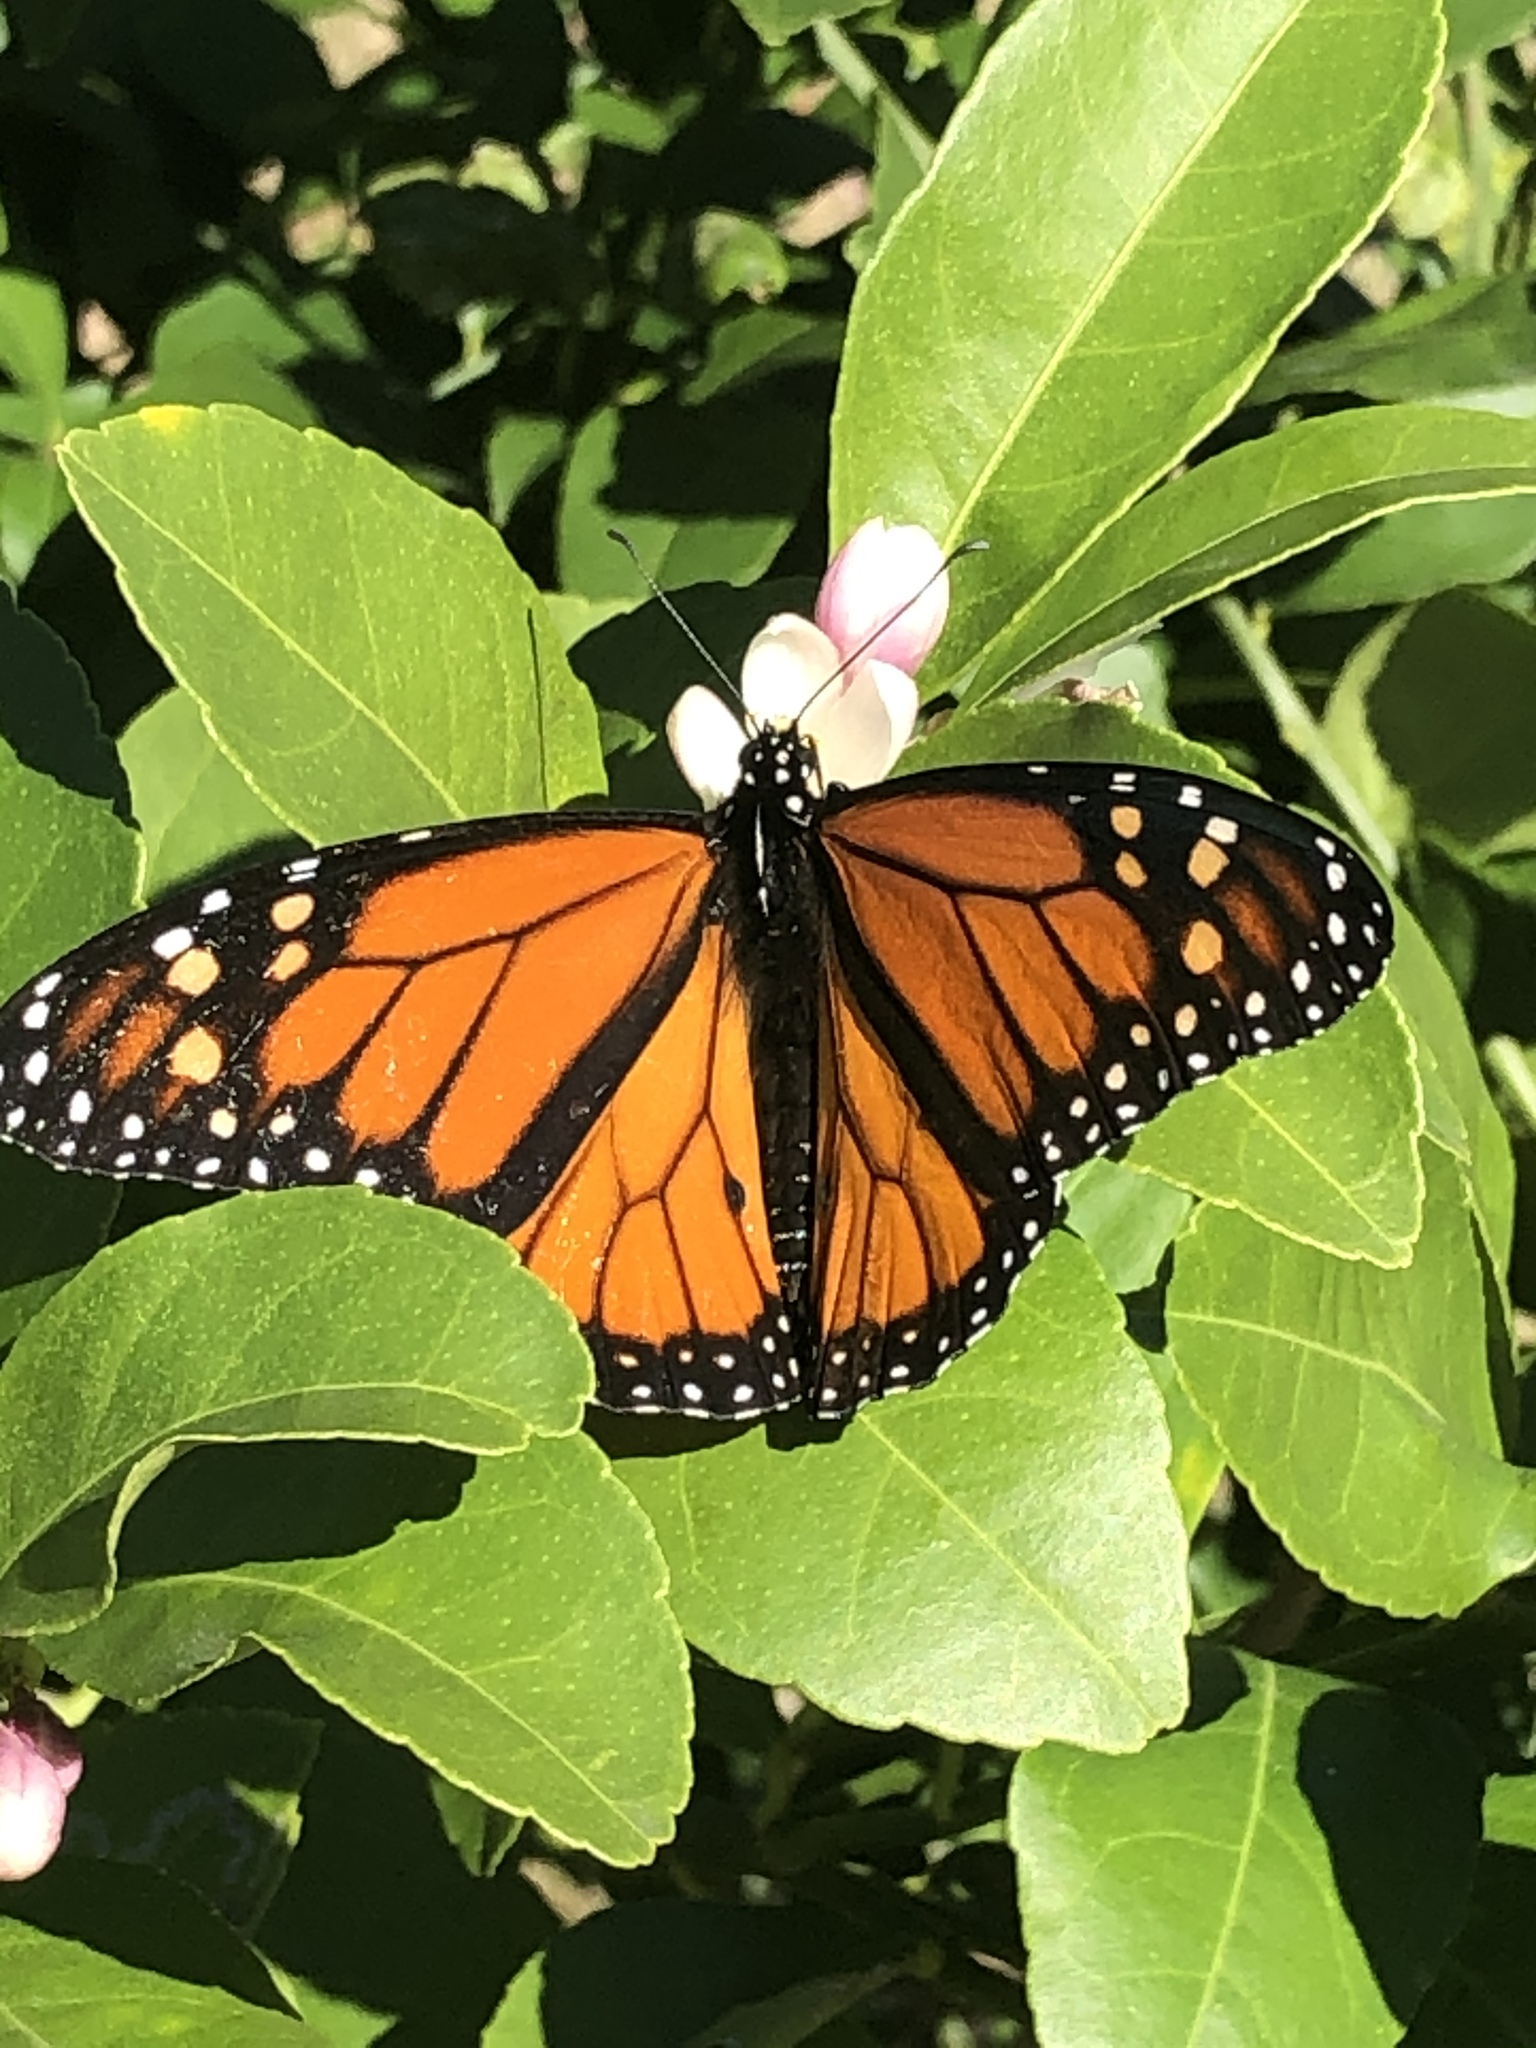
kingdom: Animalia
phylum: Arthropoda
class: Insecta
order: Lepidoptera
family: Nymphalidae
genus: Danaus
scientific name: Danaus plexippus
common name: Monarch
